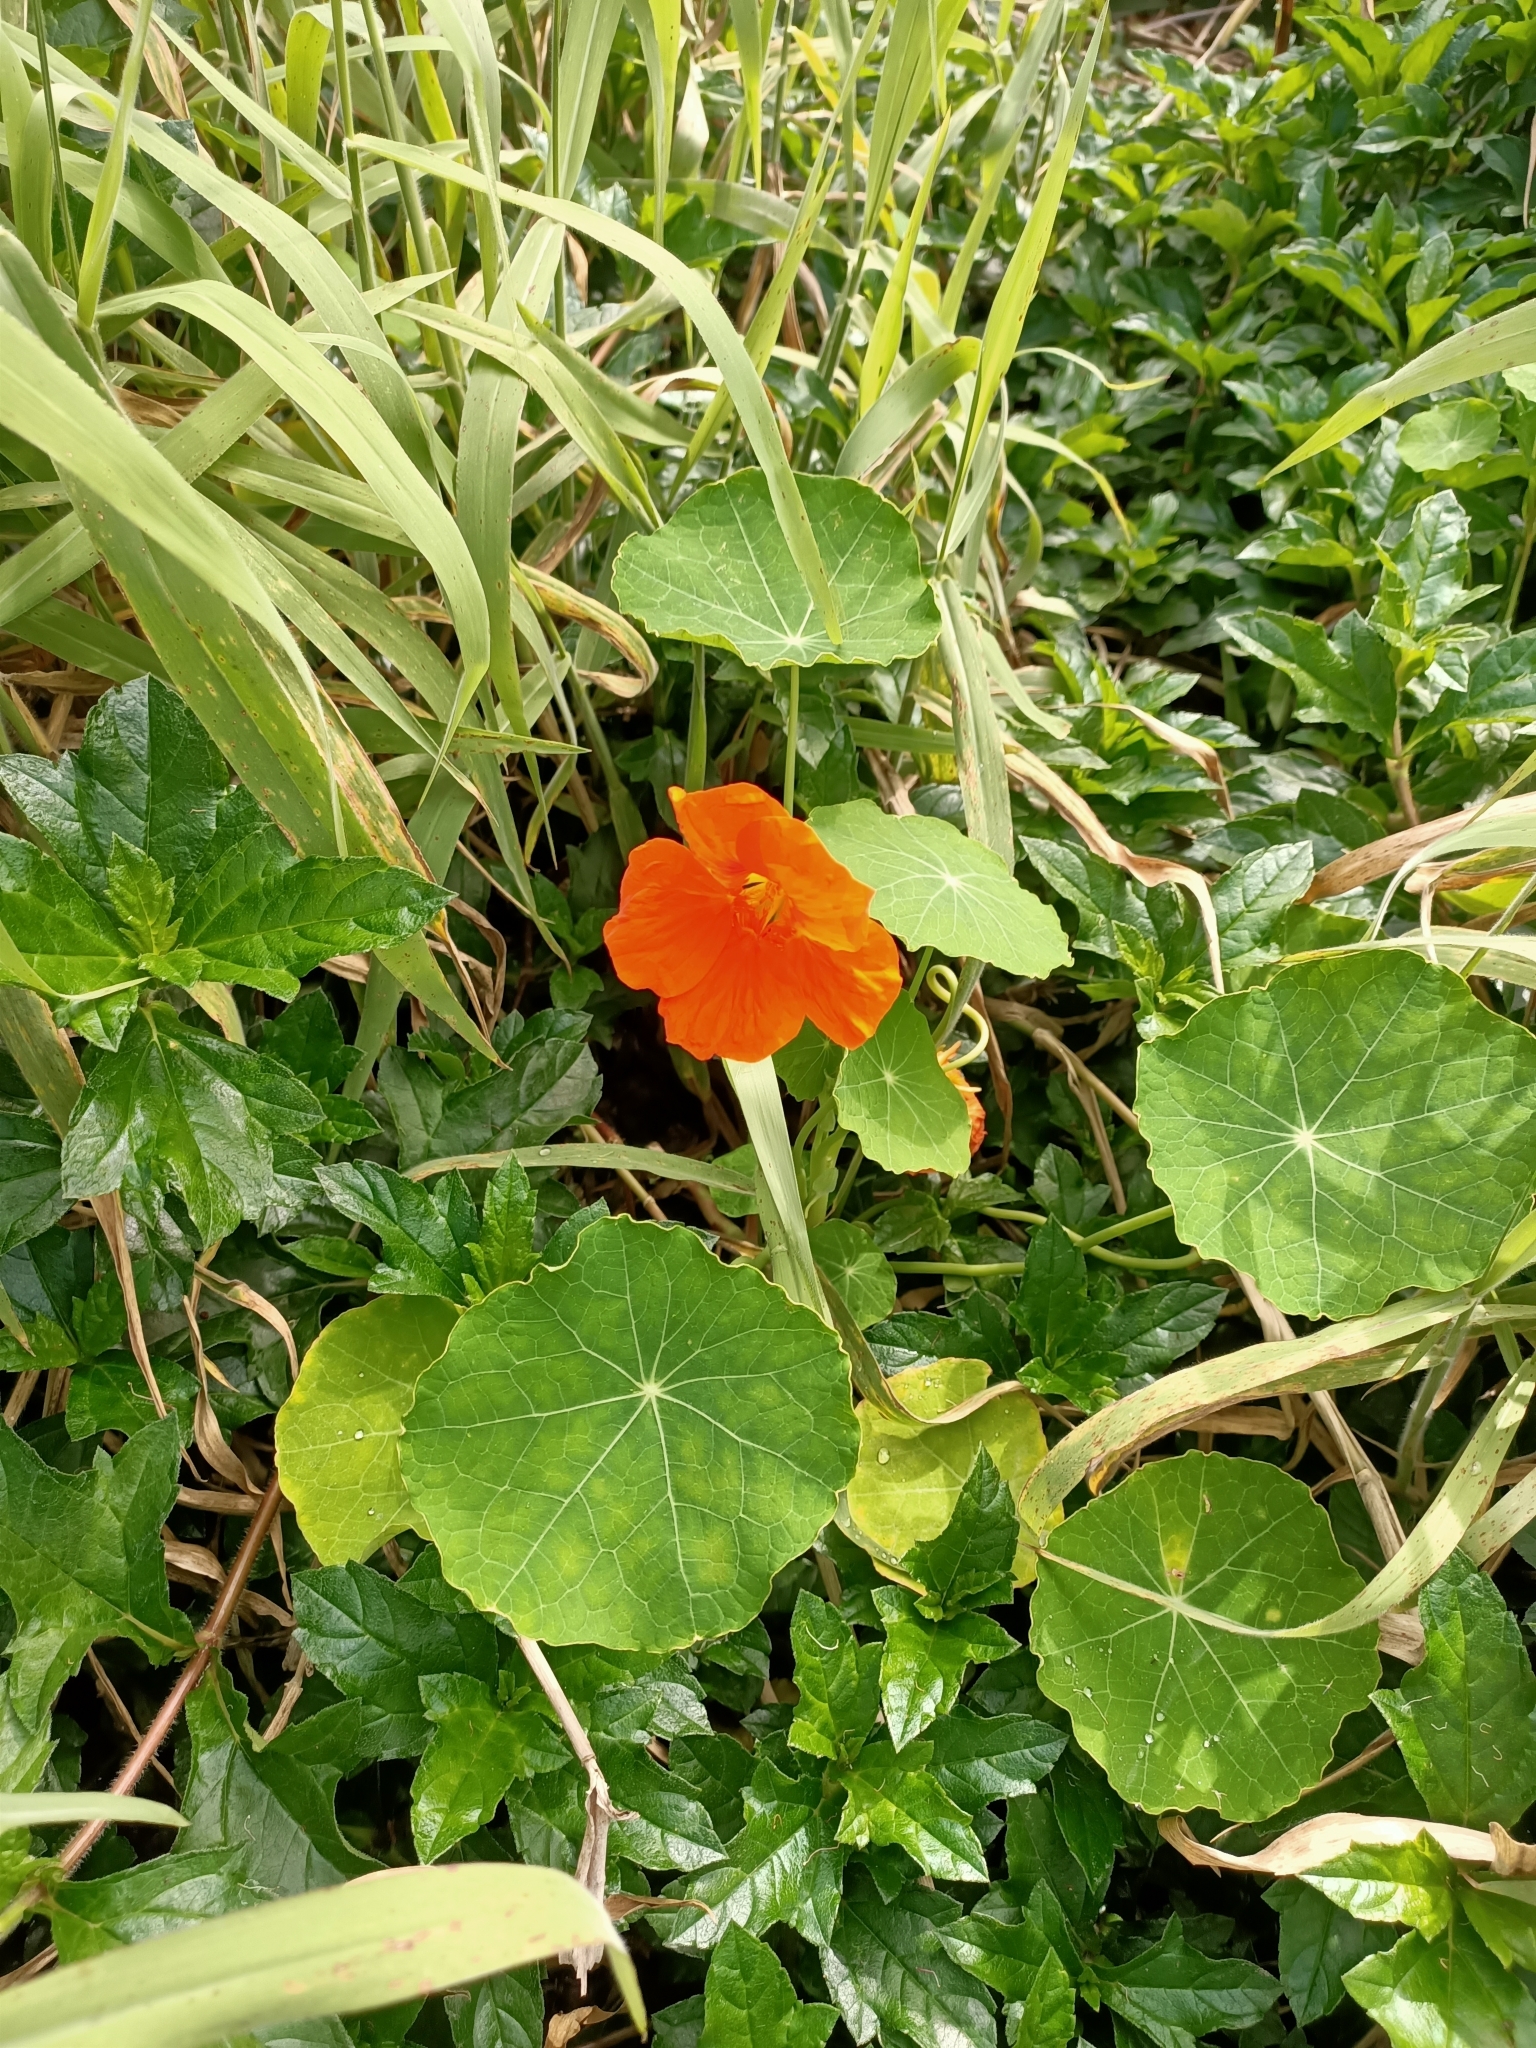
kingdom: Plantae
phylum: Tracheophyta
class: Magnoliopsida
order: Brassicales
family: Tropaeolaceae
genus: Tropaeolum
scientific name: Tropaeolum majus
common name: Nasturtium
